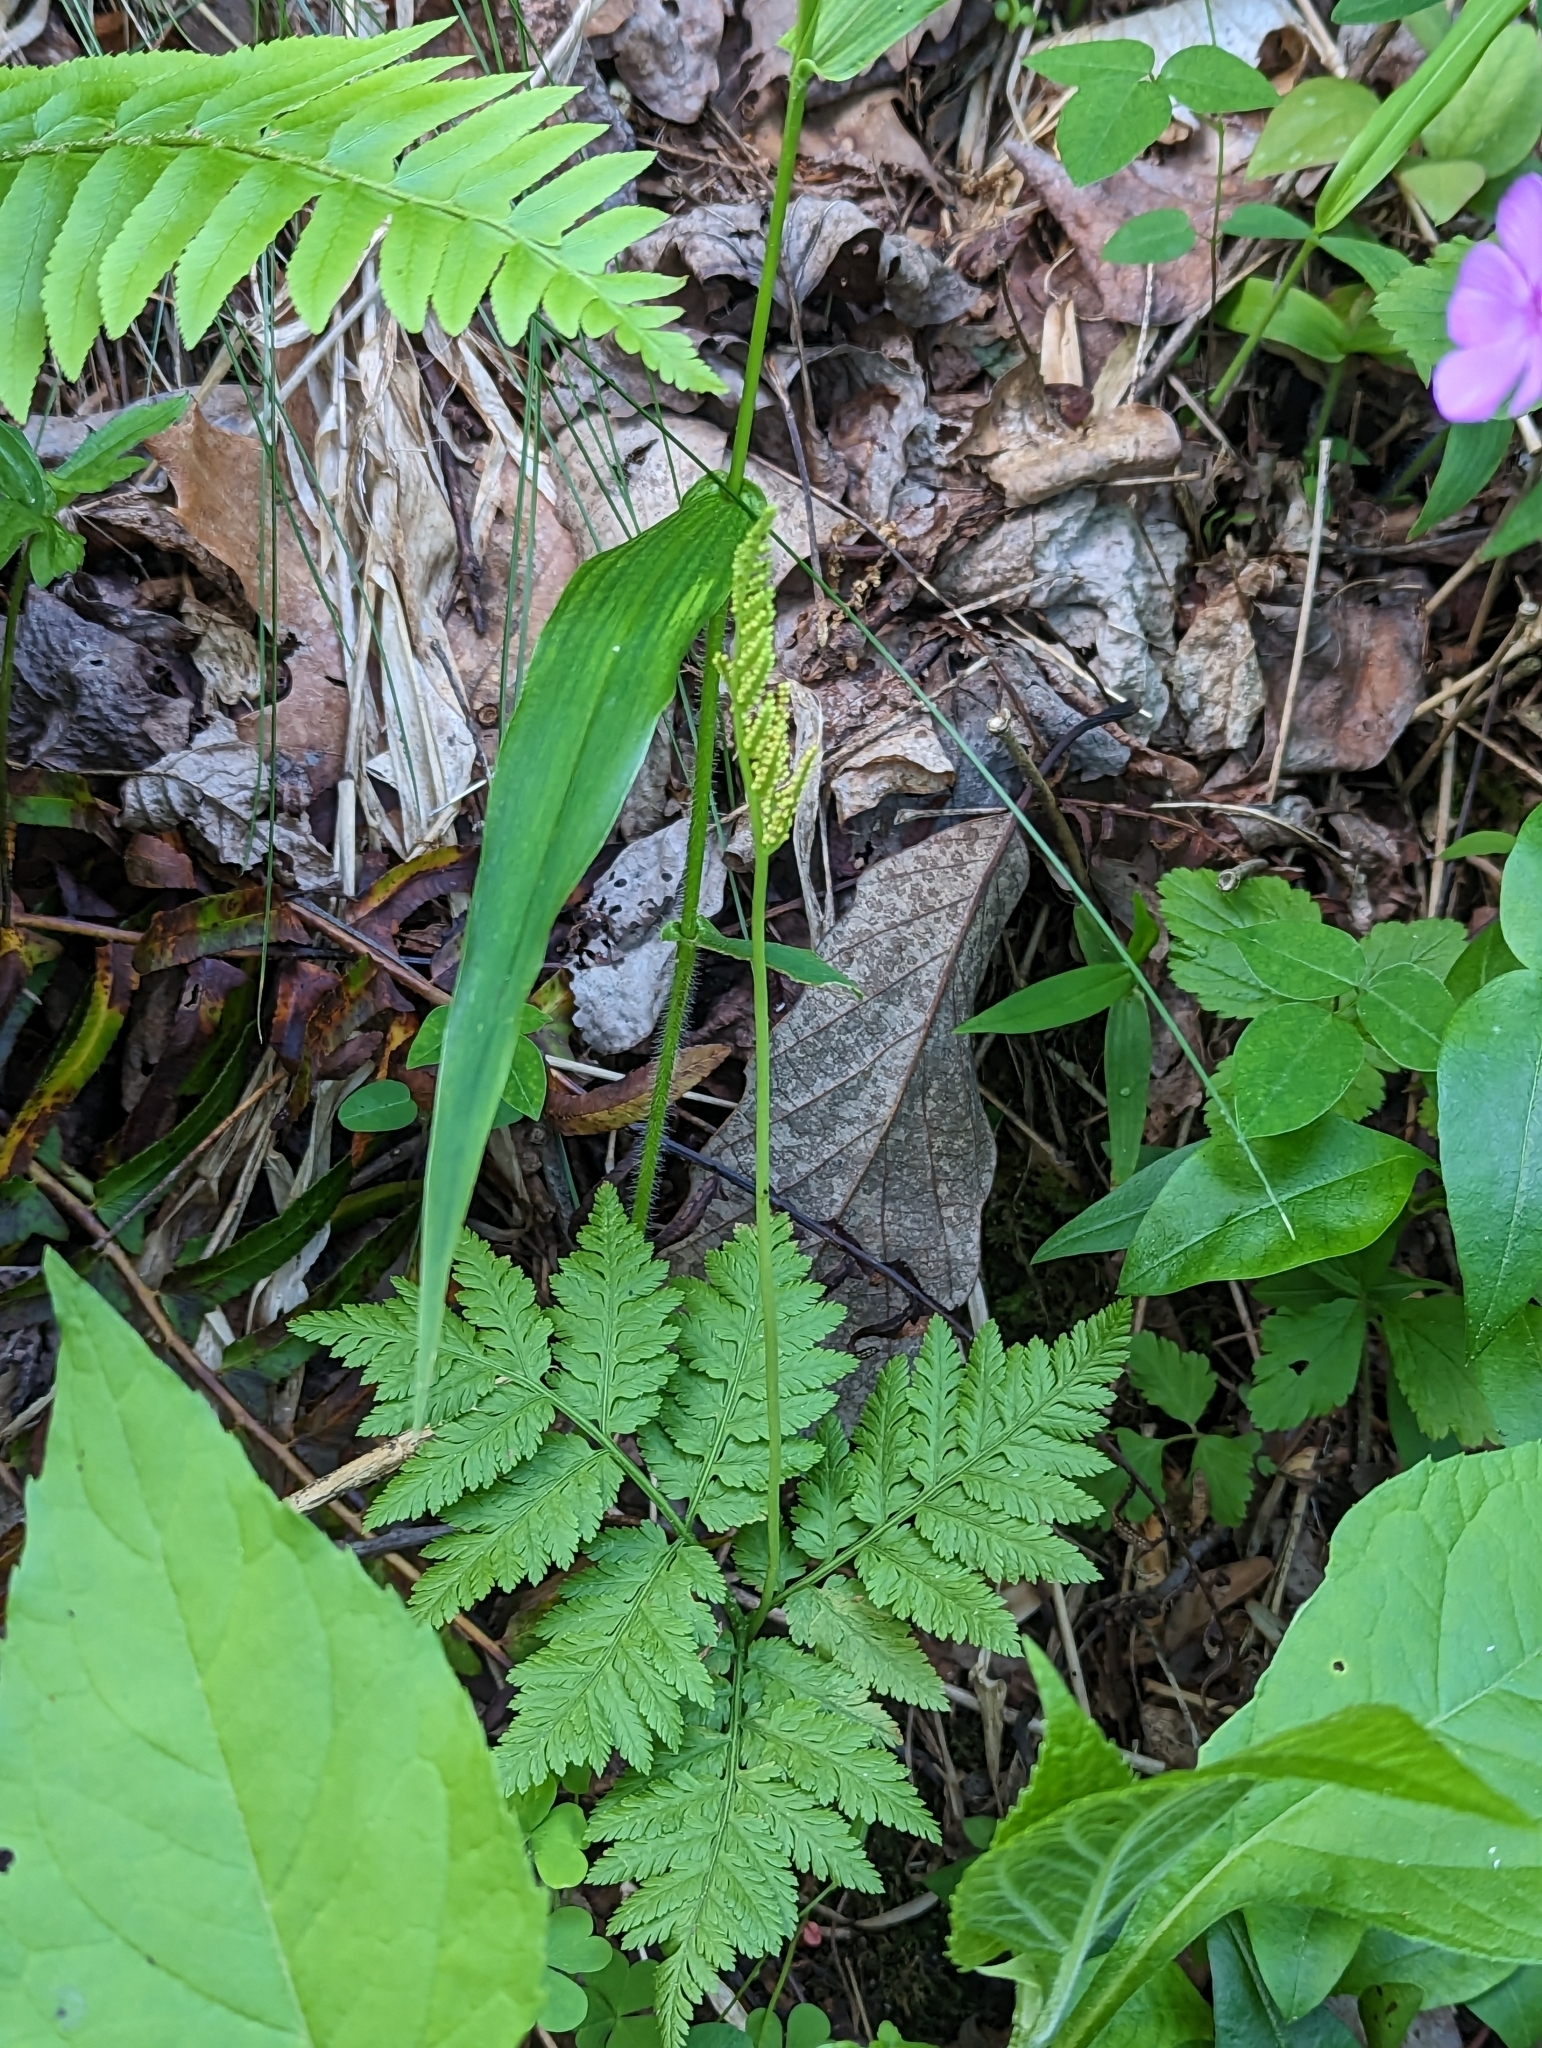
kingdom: Plantae
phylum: Tracheophyta
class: Polypodiopsida
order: Ophioglossales
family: Ophioglossaceae
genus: Botrypus
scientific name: Botrypus virginianus
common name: Common grapefern
